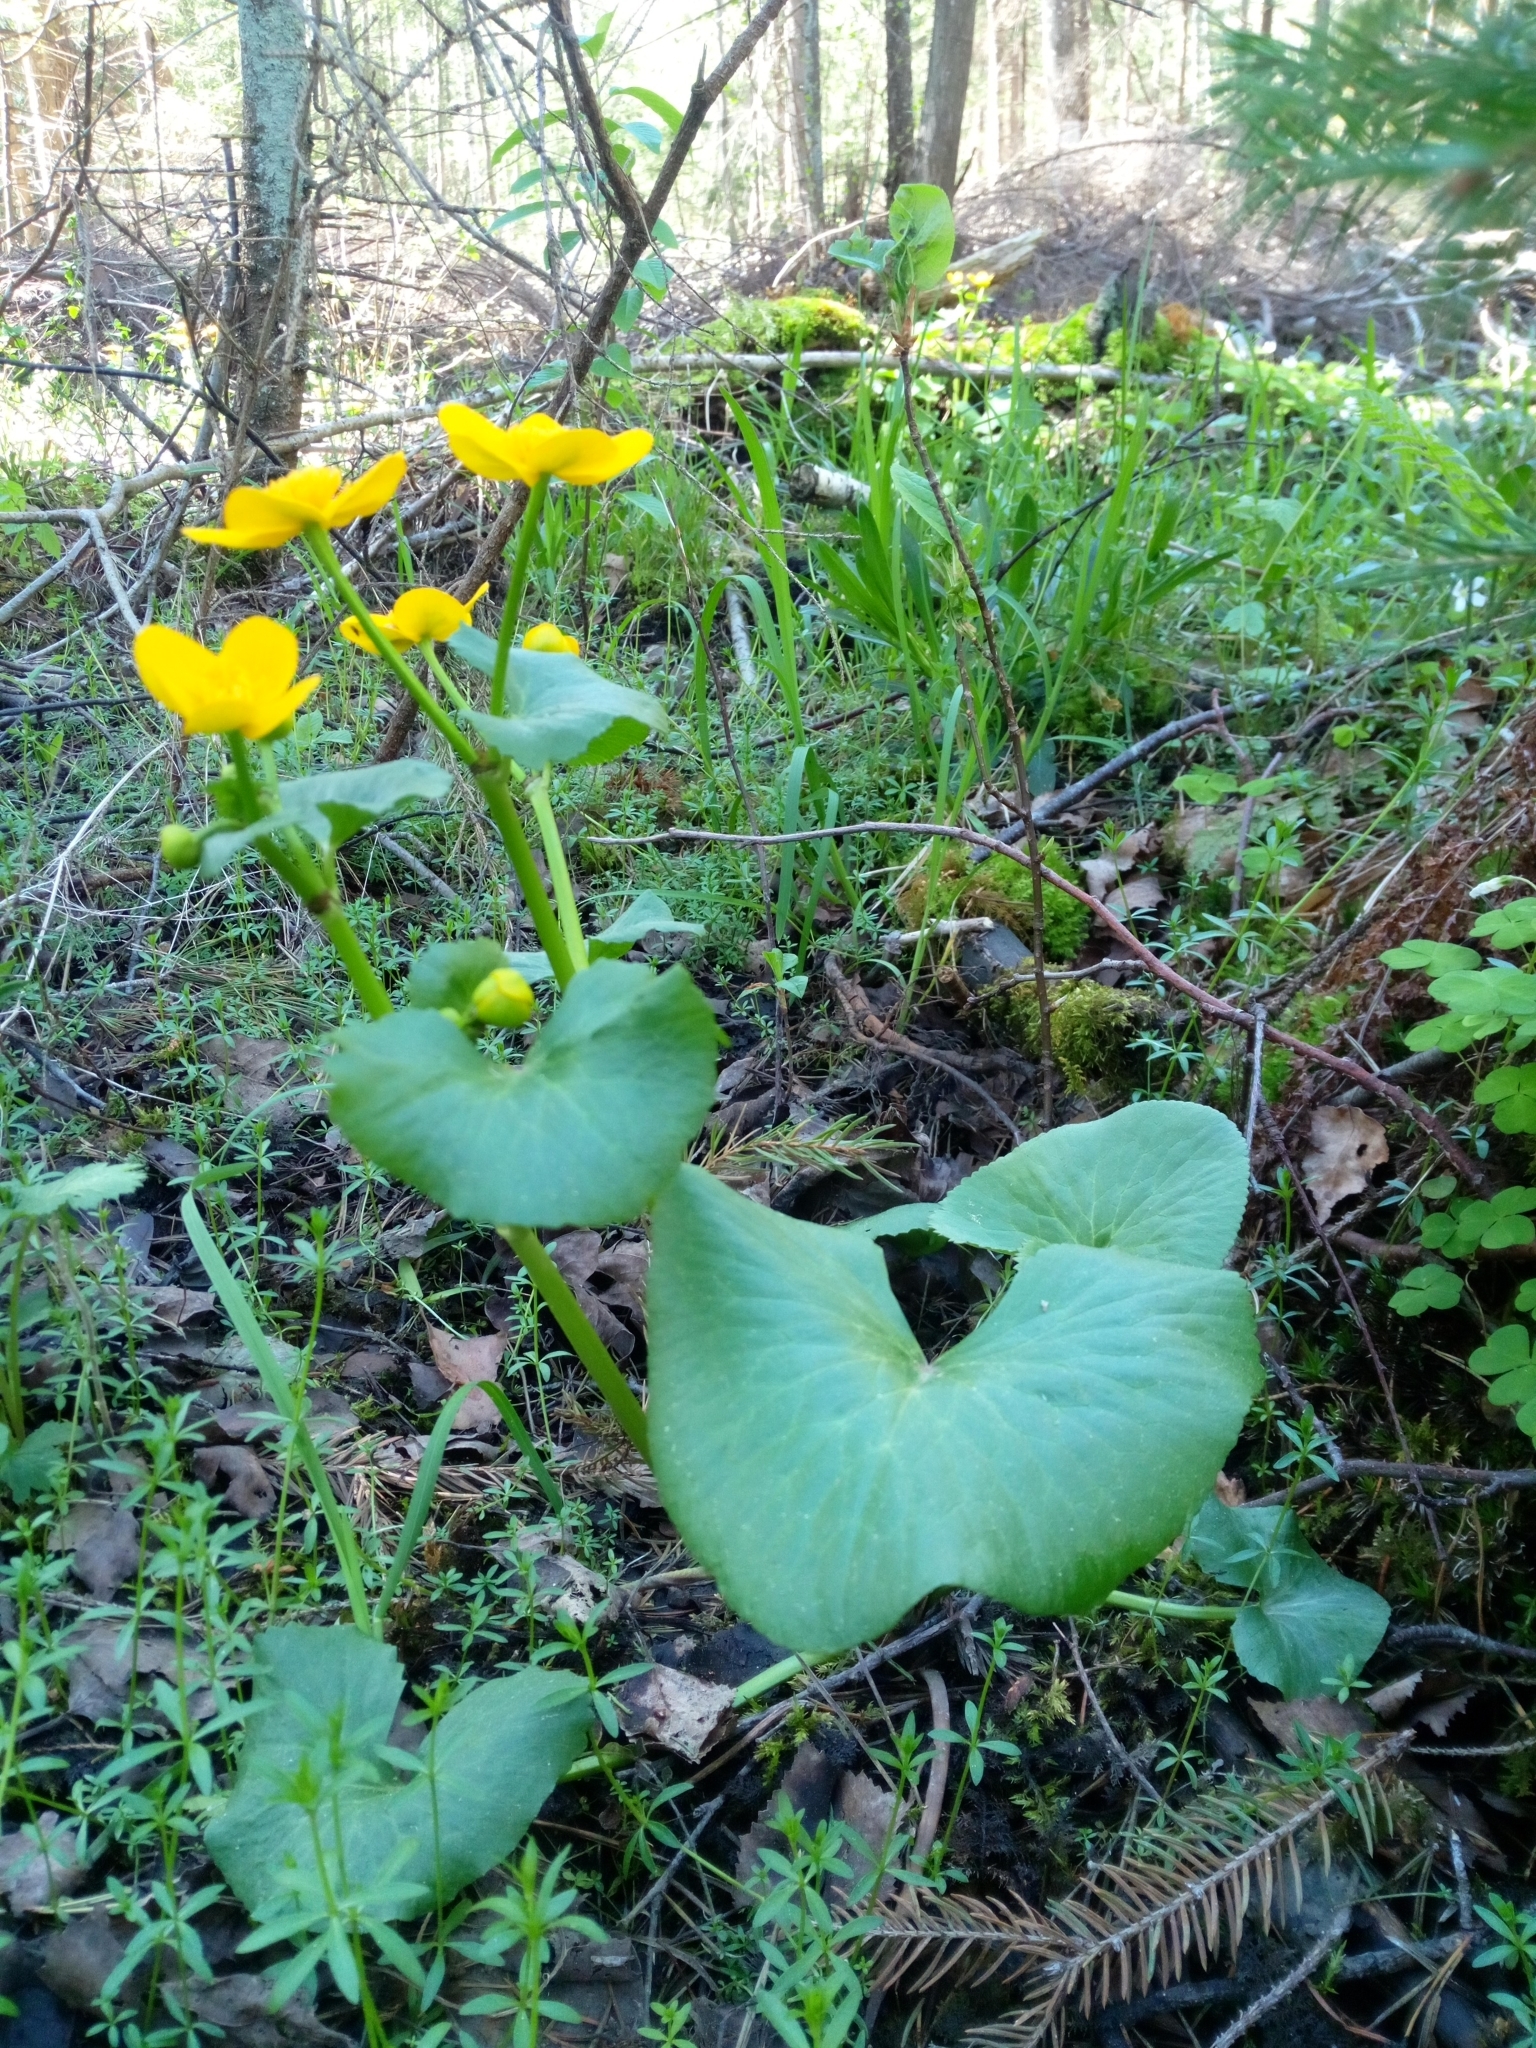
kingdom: Plantae
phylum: Tracheophyta
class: Magnoliopsida
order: Ranunculales
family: Ranunculaceae
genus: Caltha
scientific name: Caltha palustris
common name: Marsh marigold
